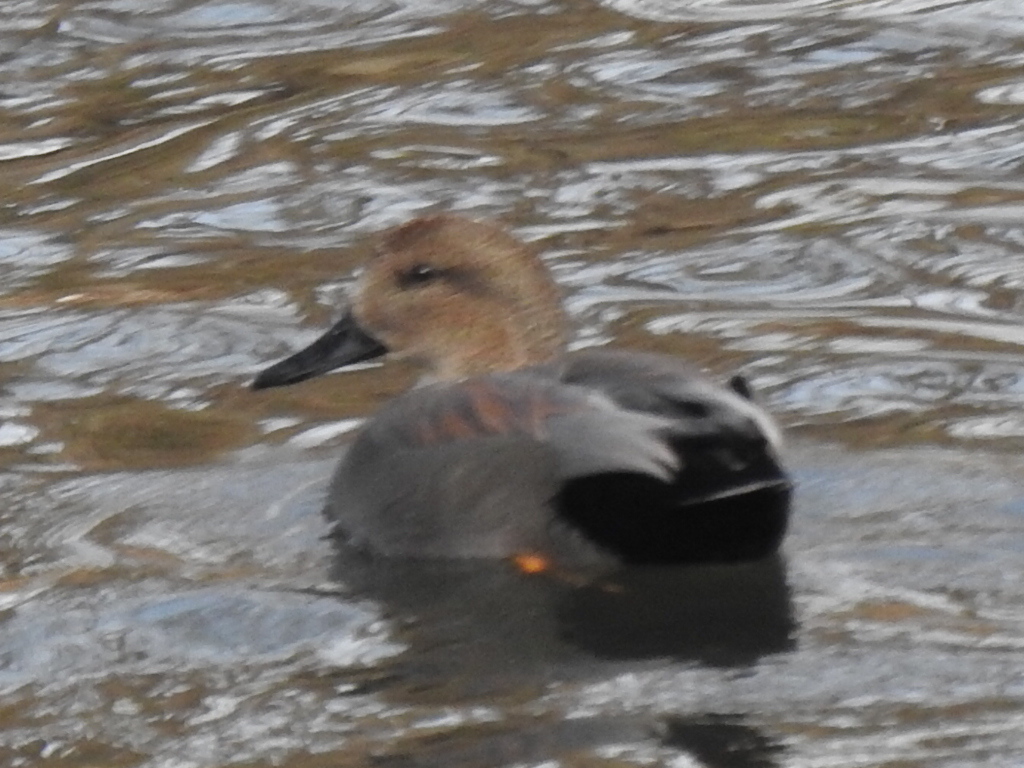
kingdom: Animalia
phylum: Chordata
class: Aves
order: Anseriformes
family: Anatidae
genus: Mareca
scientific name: Mareca strepera
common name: Gadwall
